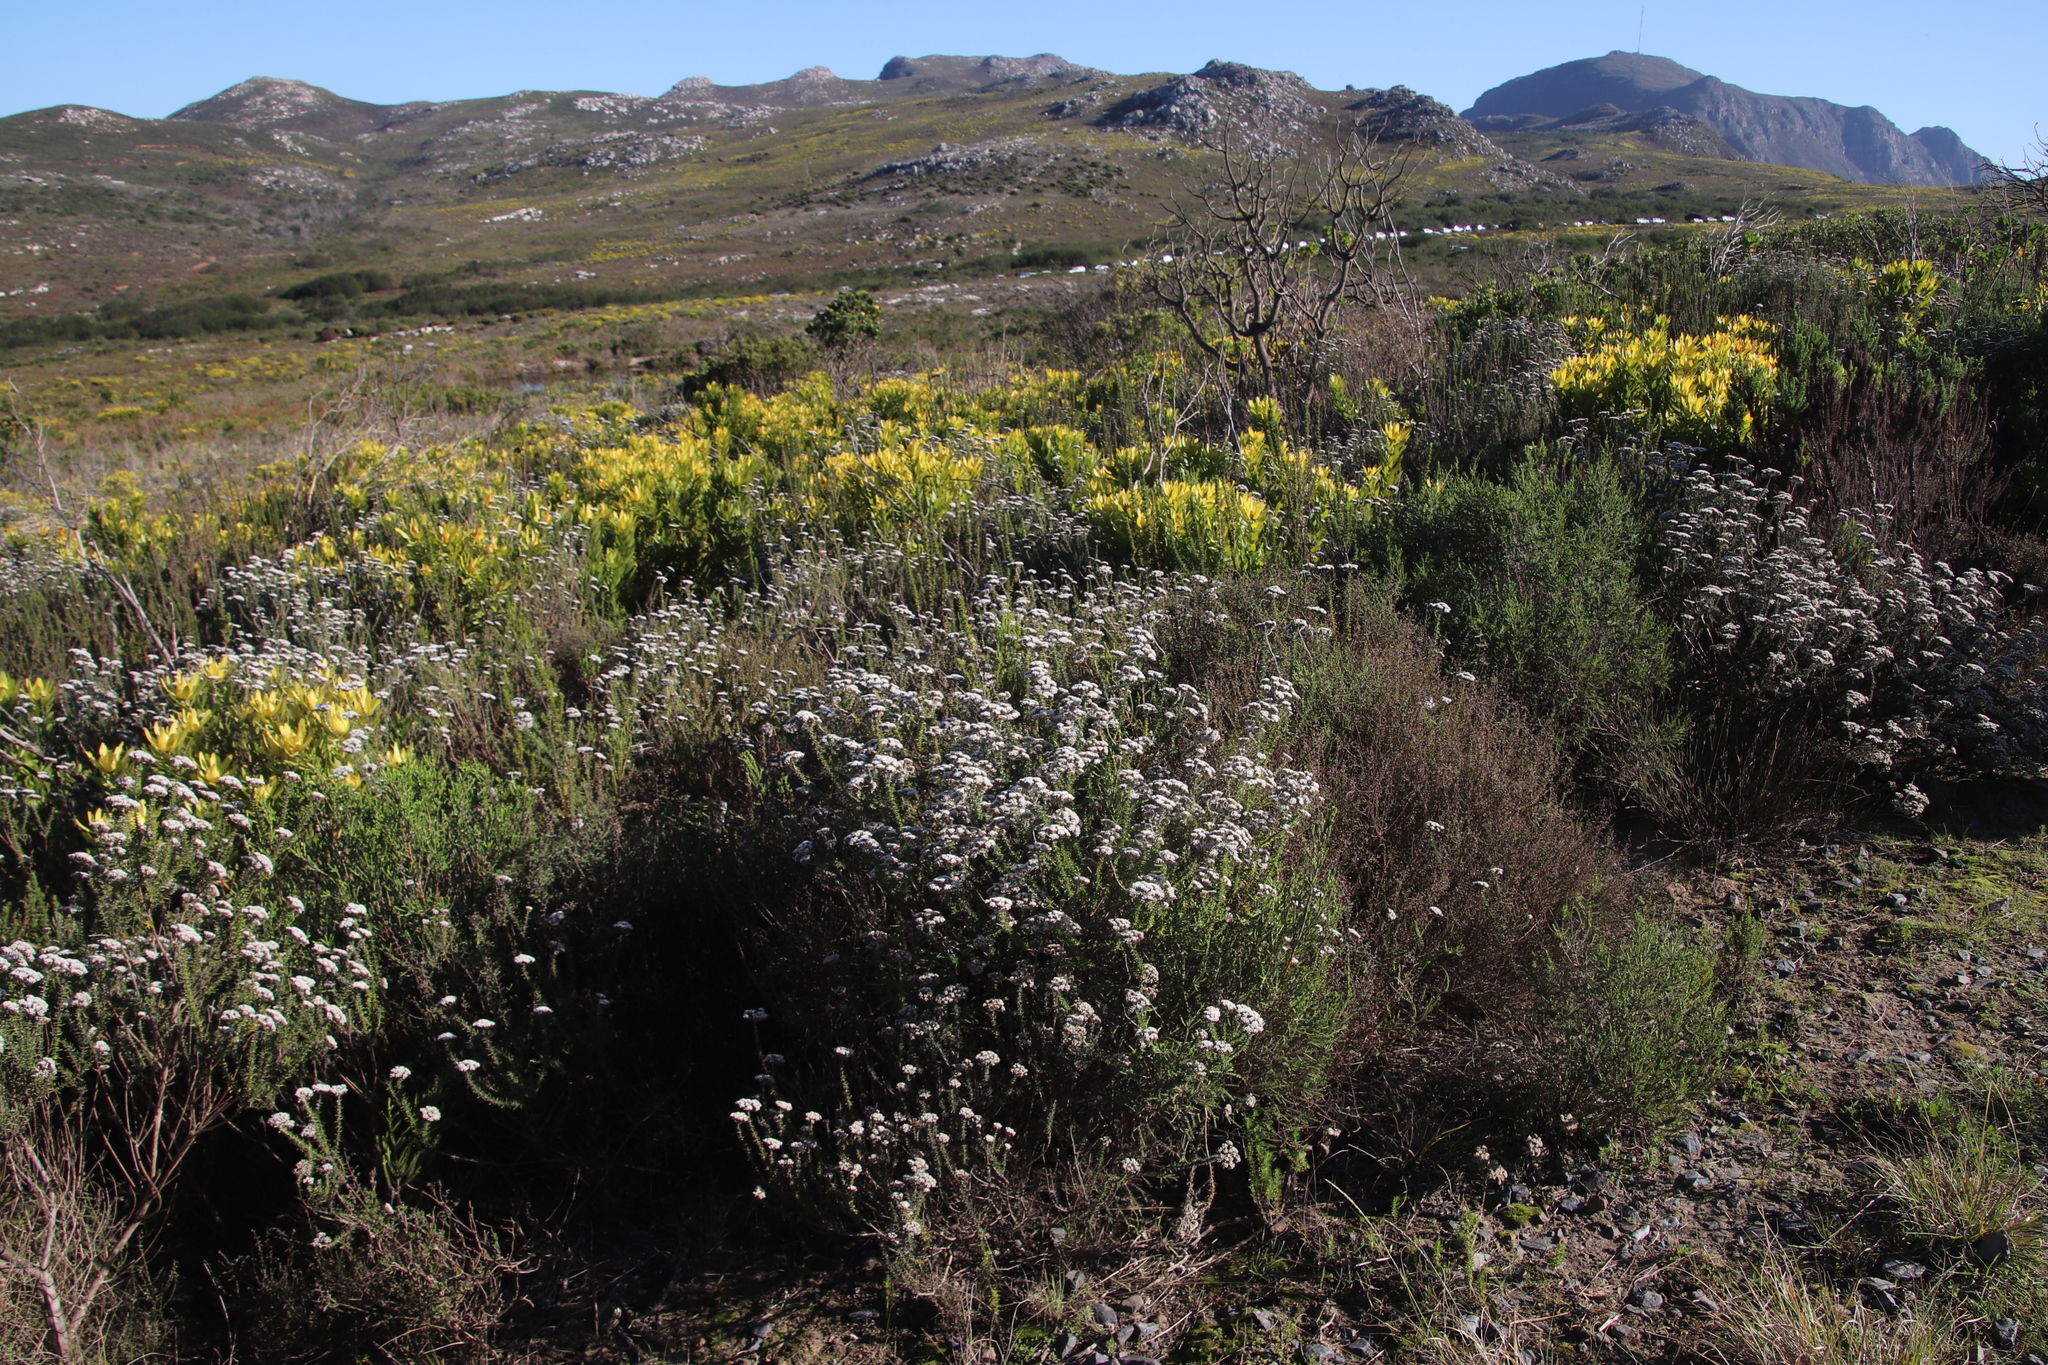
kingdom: Plantae
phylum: Tracheophyta
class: Magnoliopsida
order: Asterales
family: Asteraceae
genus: Metalasia
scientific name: Metalasia densa
